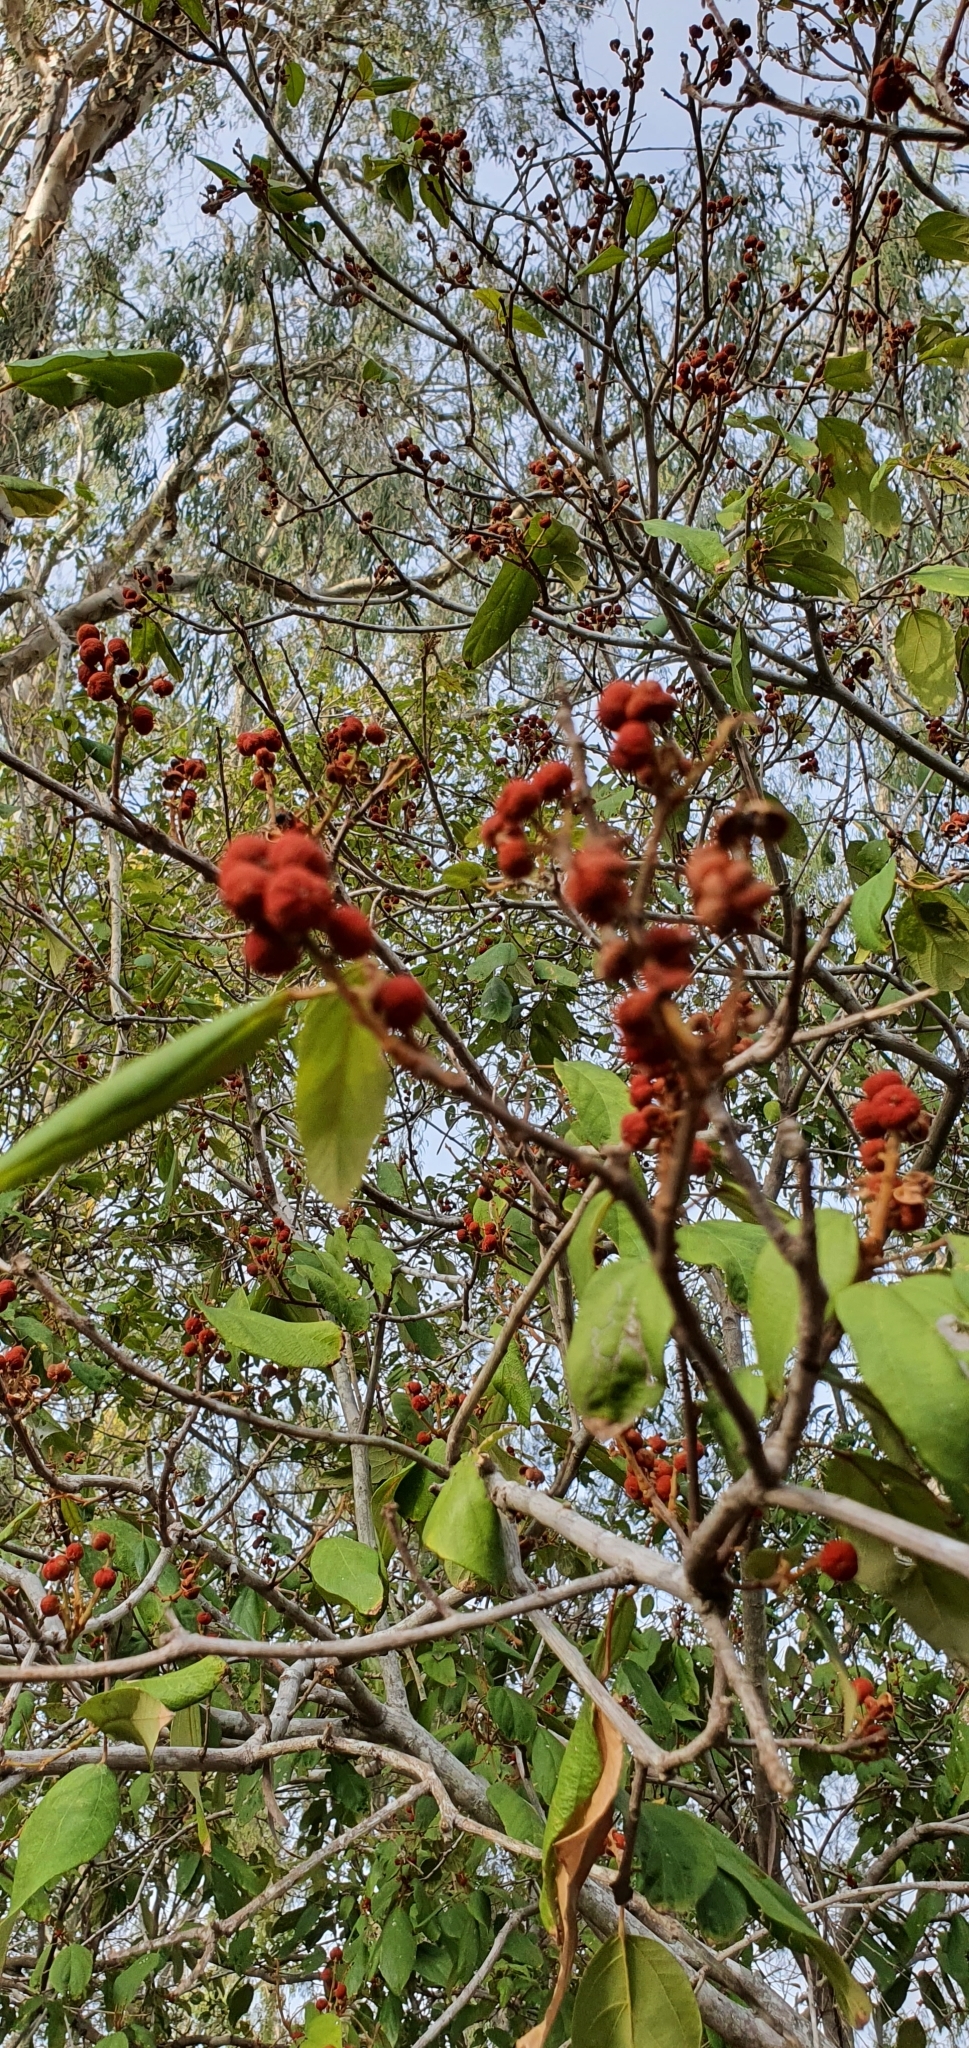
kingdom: Plantae
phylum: Tracheophyta
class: Magnoliopsida
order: Malpighiales
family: Euphorbiaceae
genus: Mallotus
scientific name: Mallotus philippensis
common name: Kamala tree
